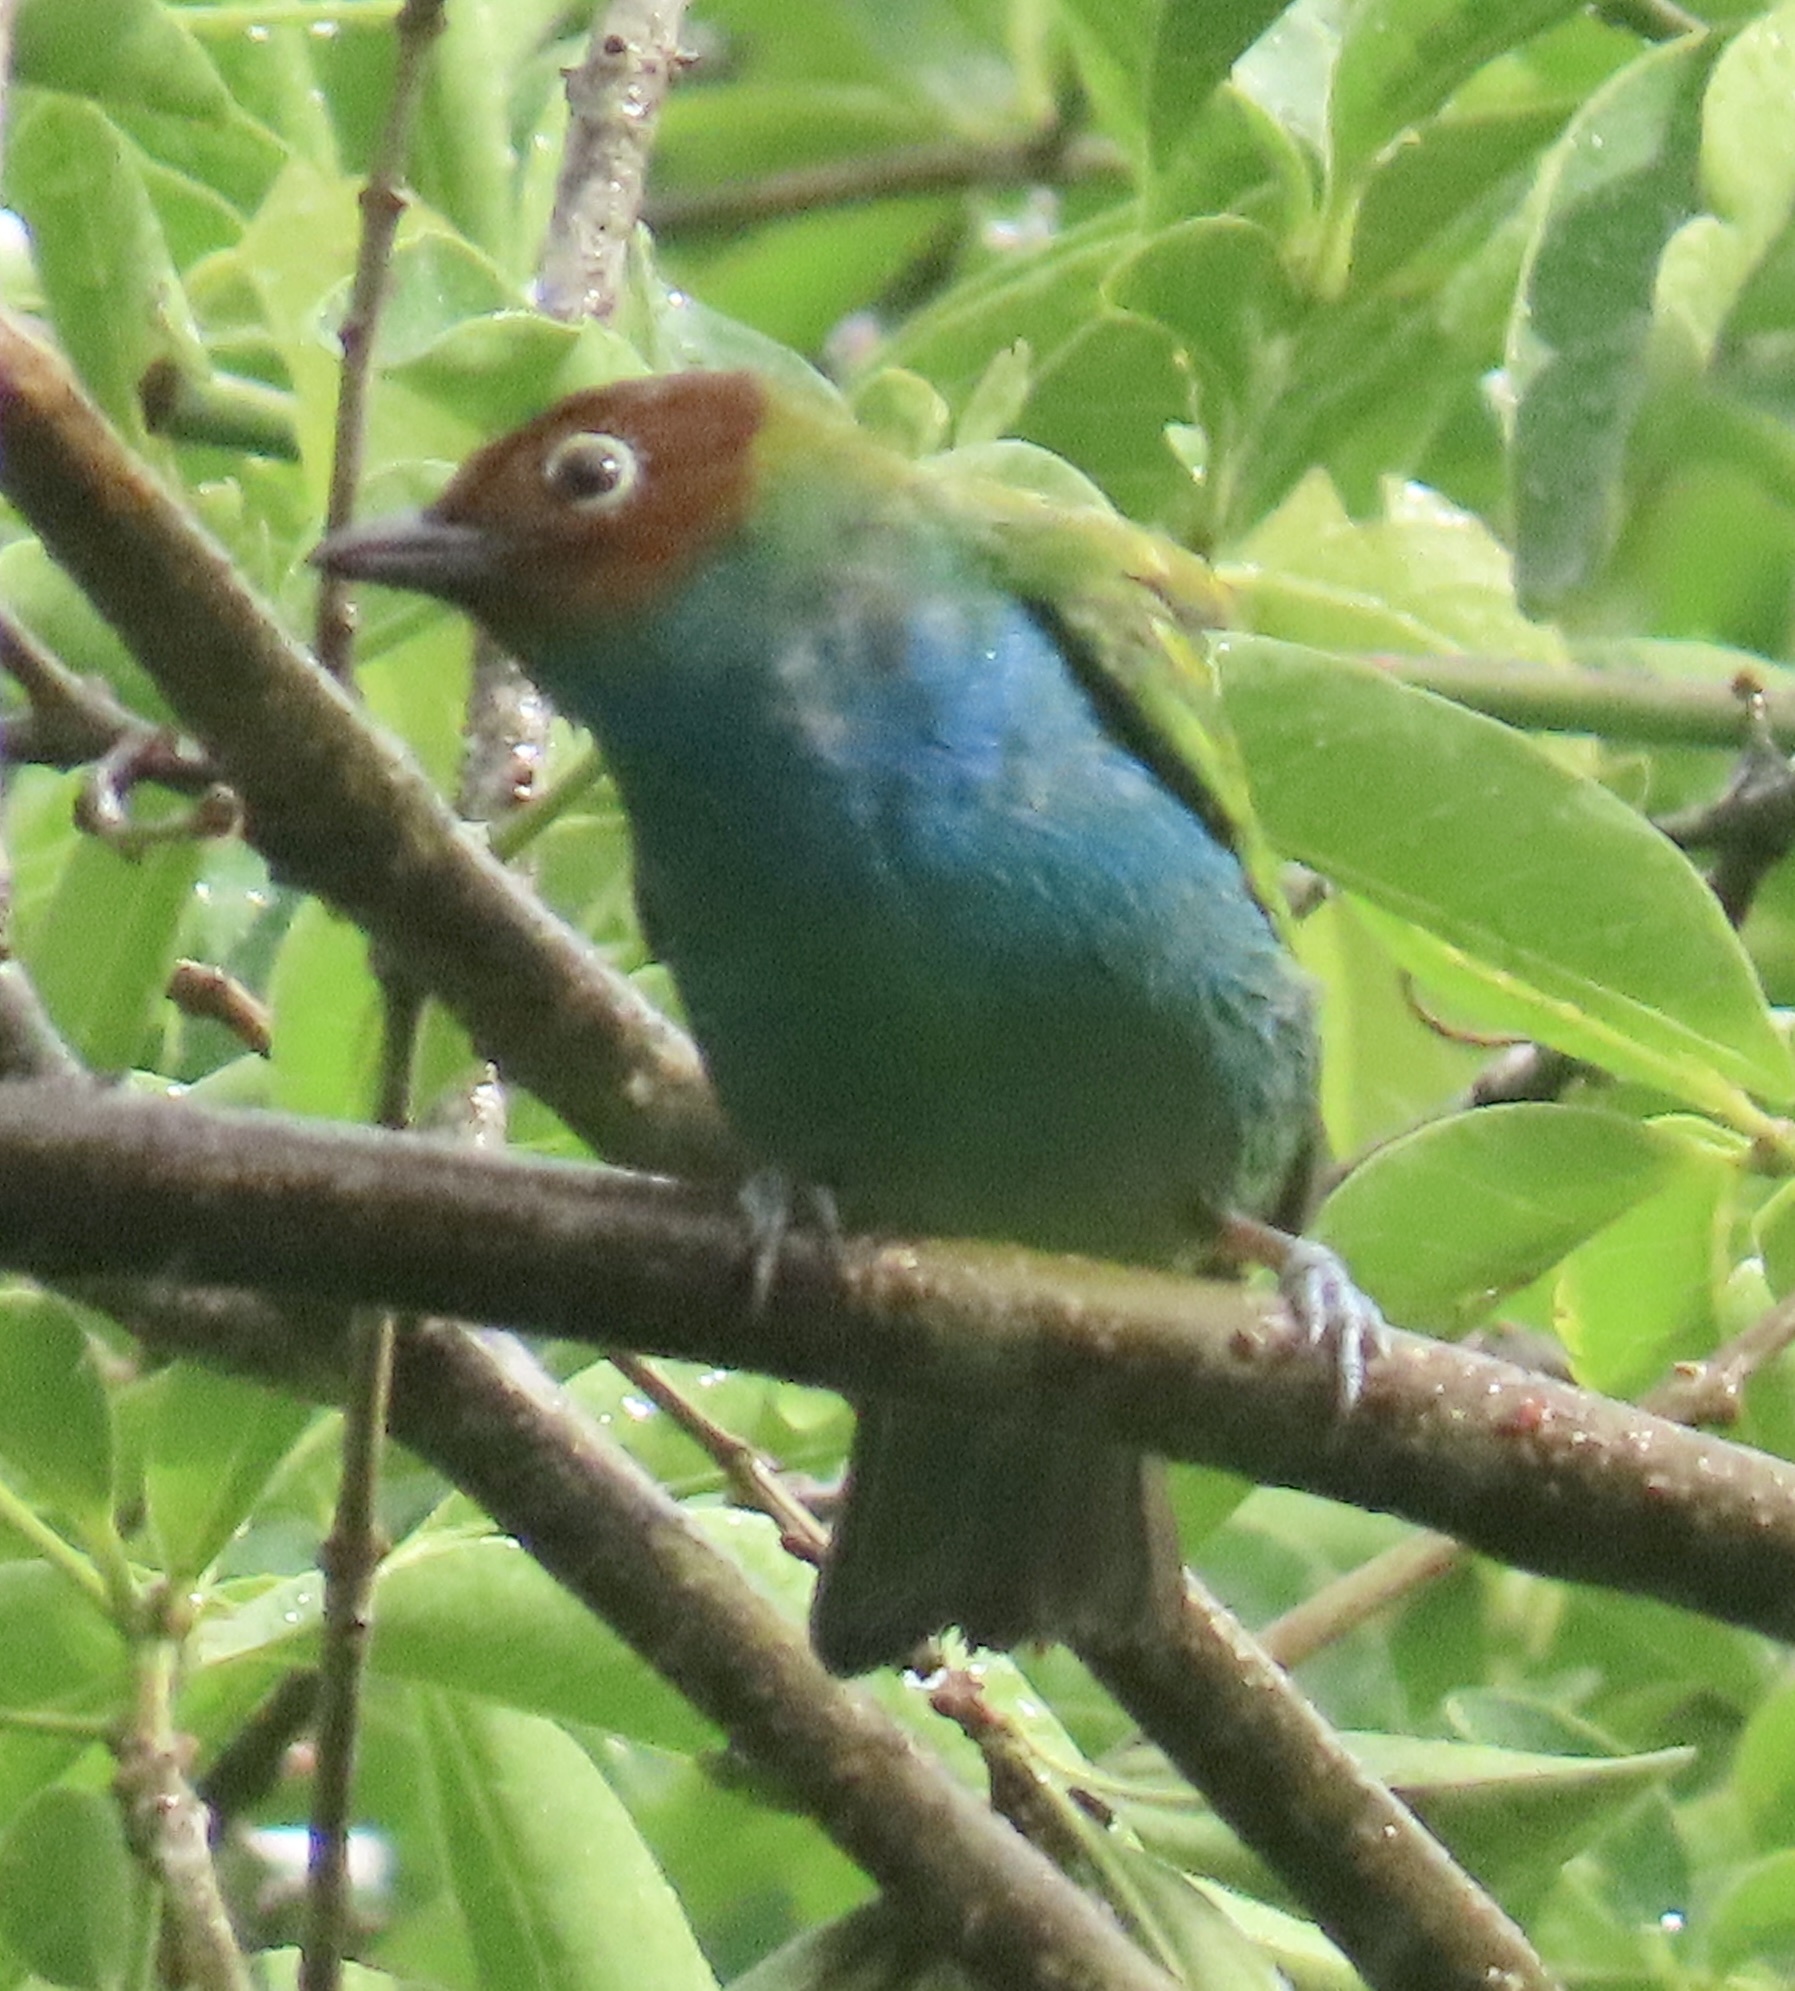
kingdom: Animalia
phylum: Chordata
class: Aves
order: Passeriformes
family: Thraupidae
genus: Tangara
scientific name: Tangara gyrola
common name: Bay-headed tanager
